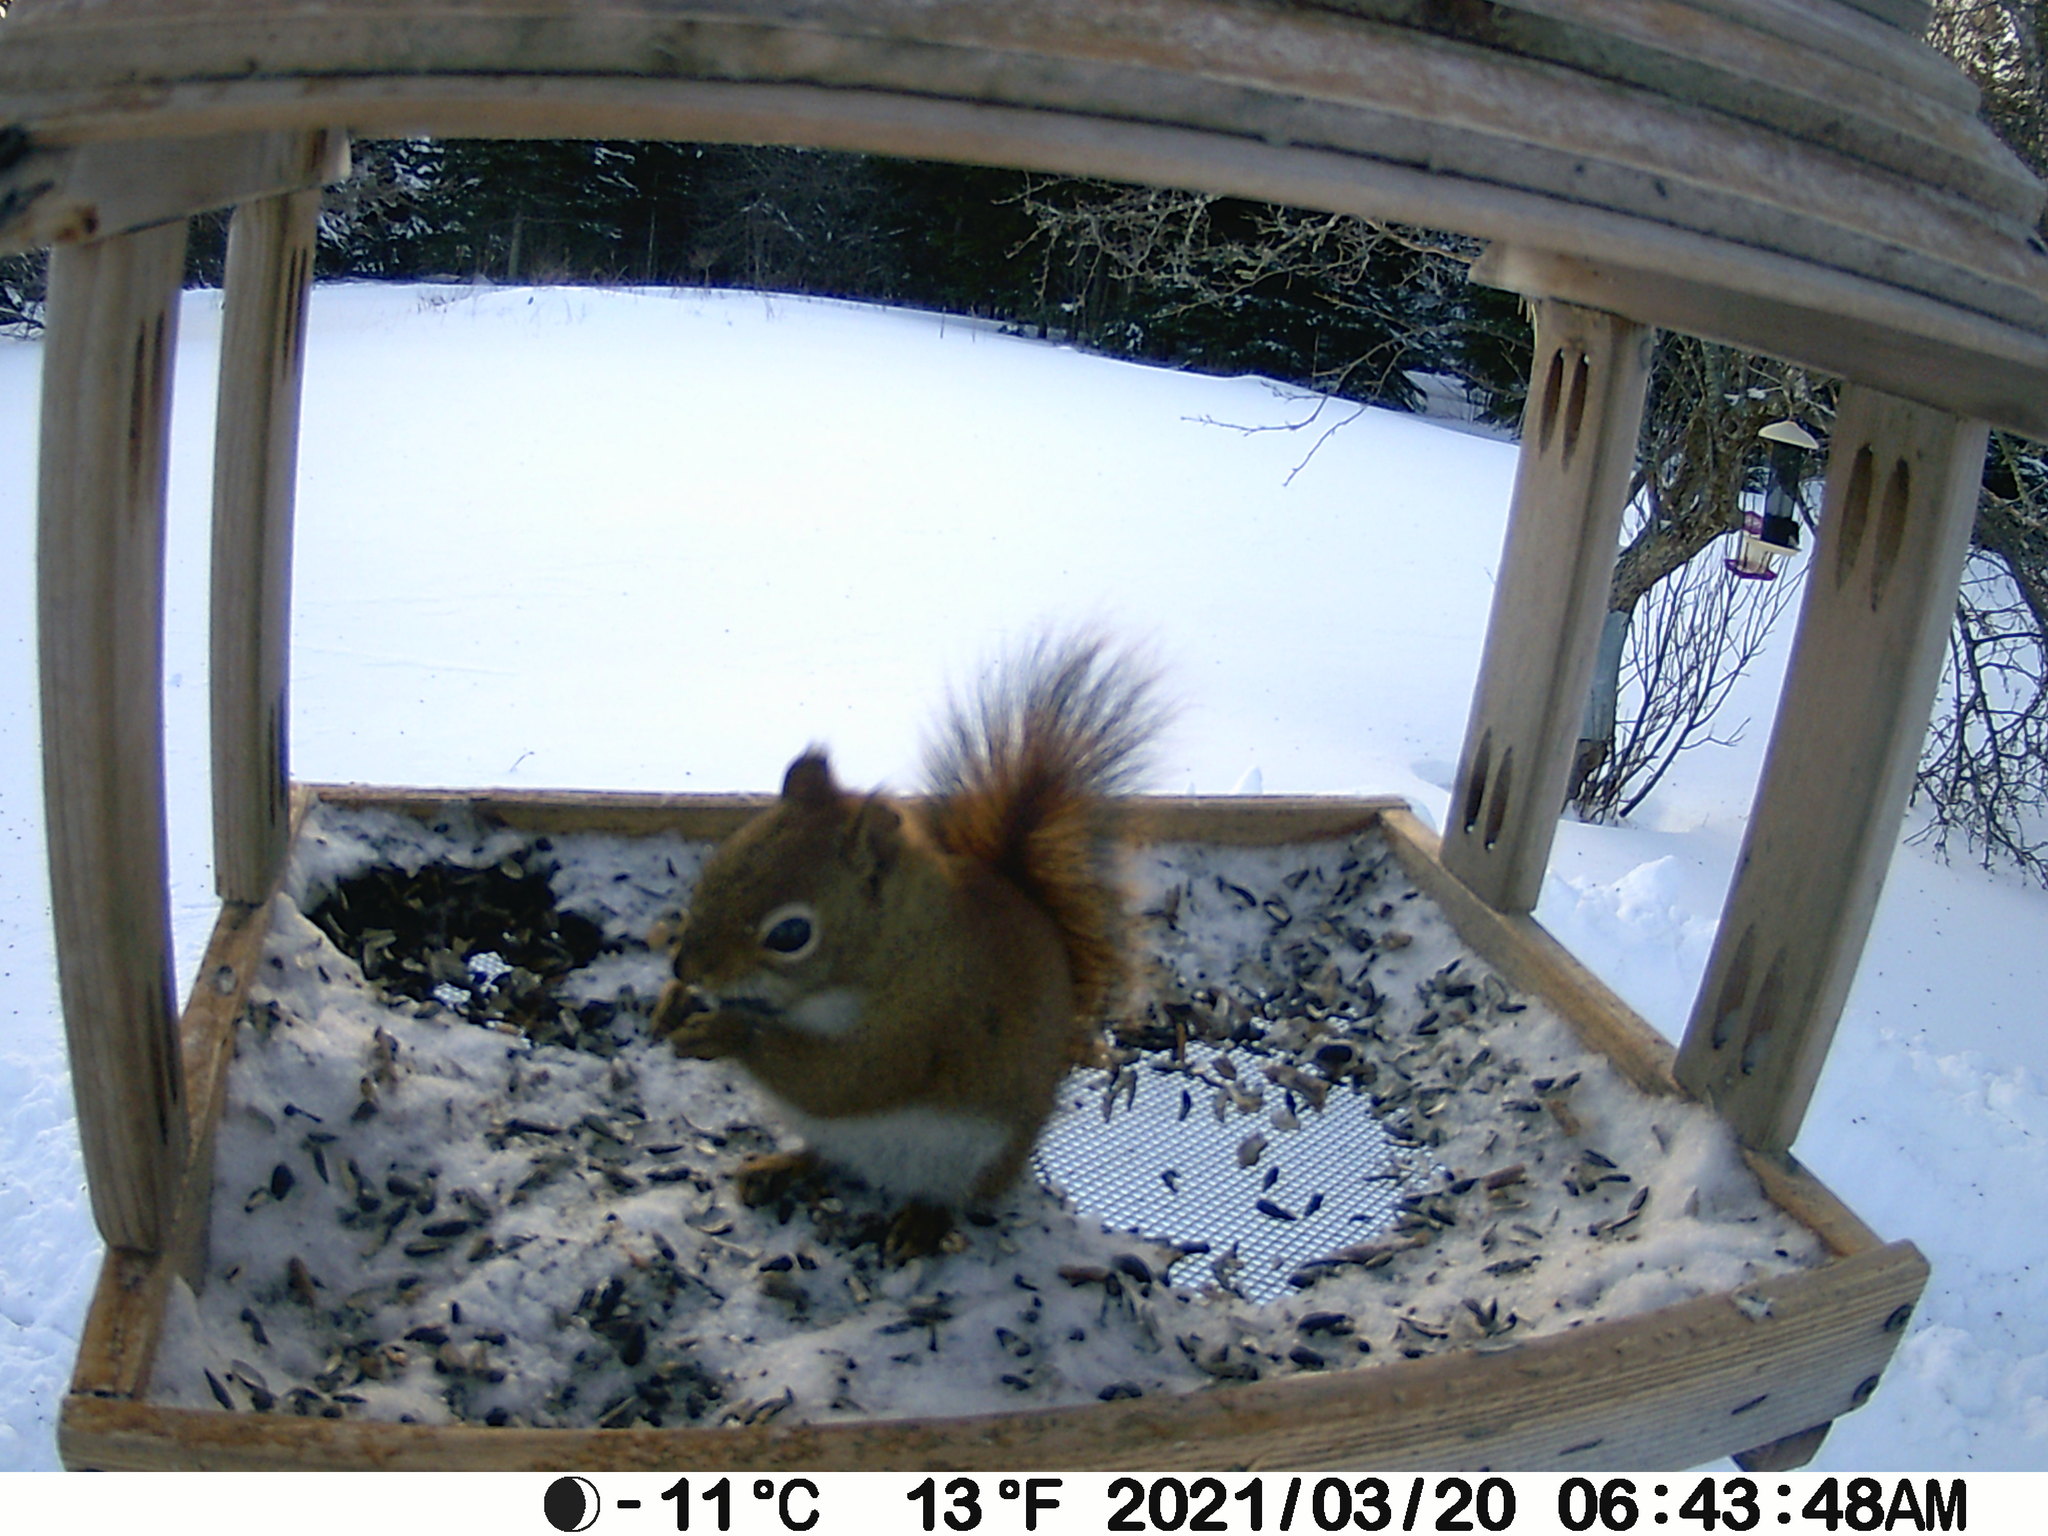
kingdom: Animalia
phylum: Chordata
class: Mammalia
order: Rodentia
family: Sciuridae
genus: Tamiasciurus
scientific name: Tamiasciurus hudsonicus
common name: Red squirrel
